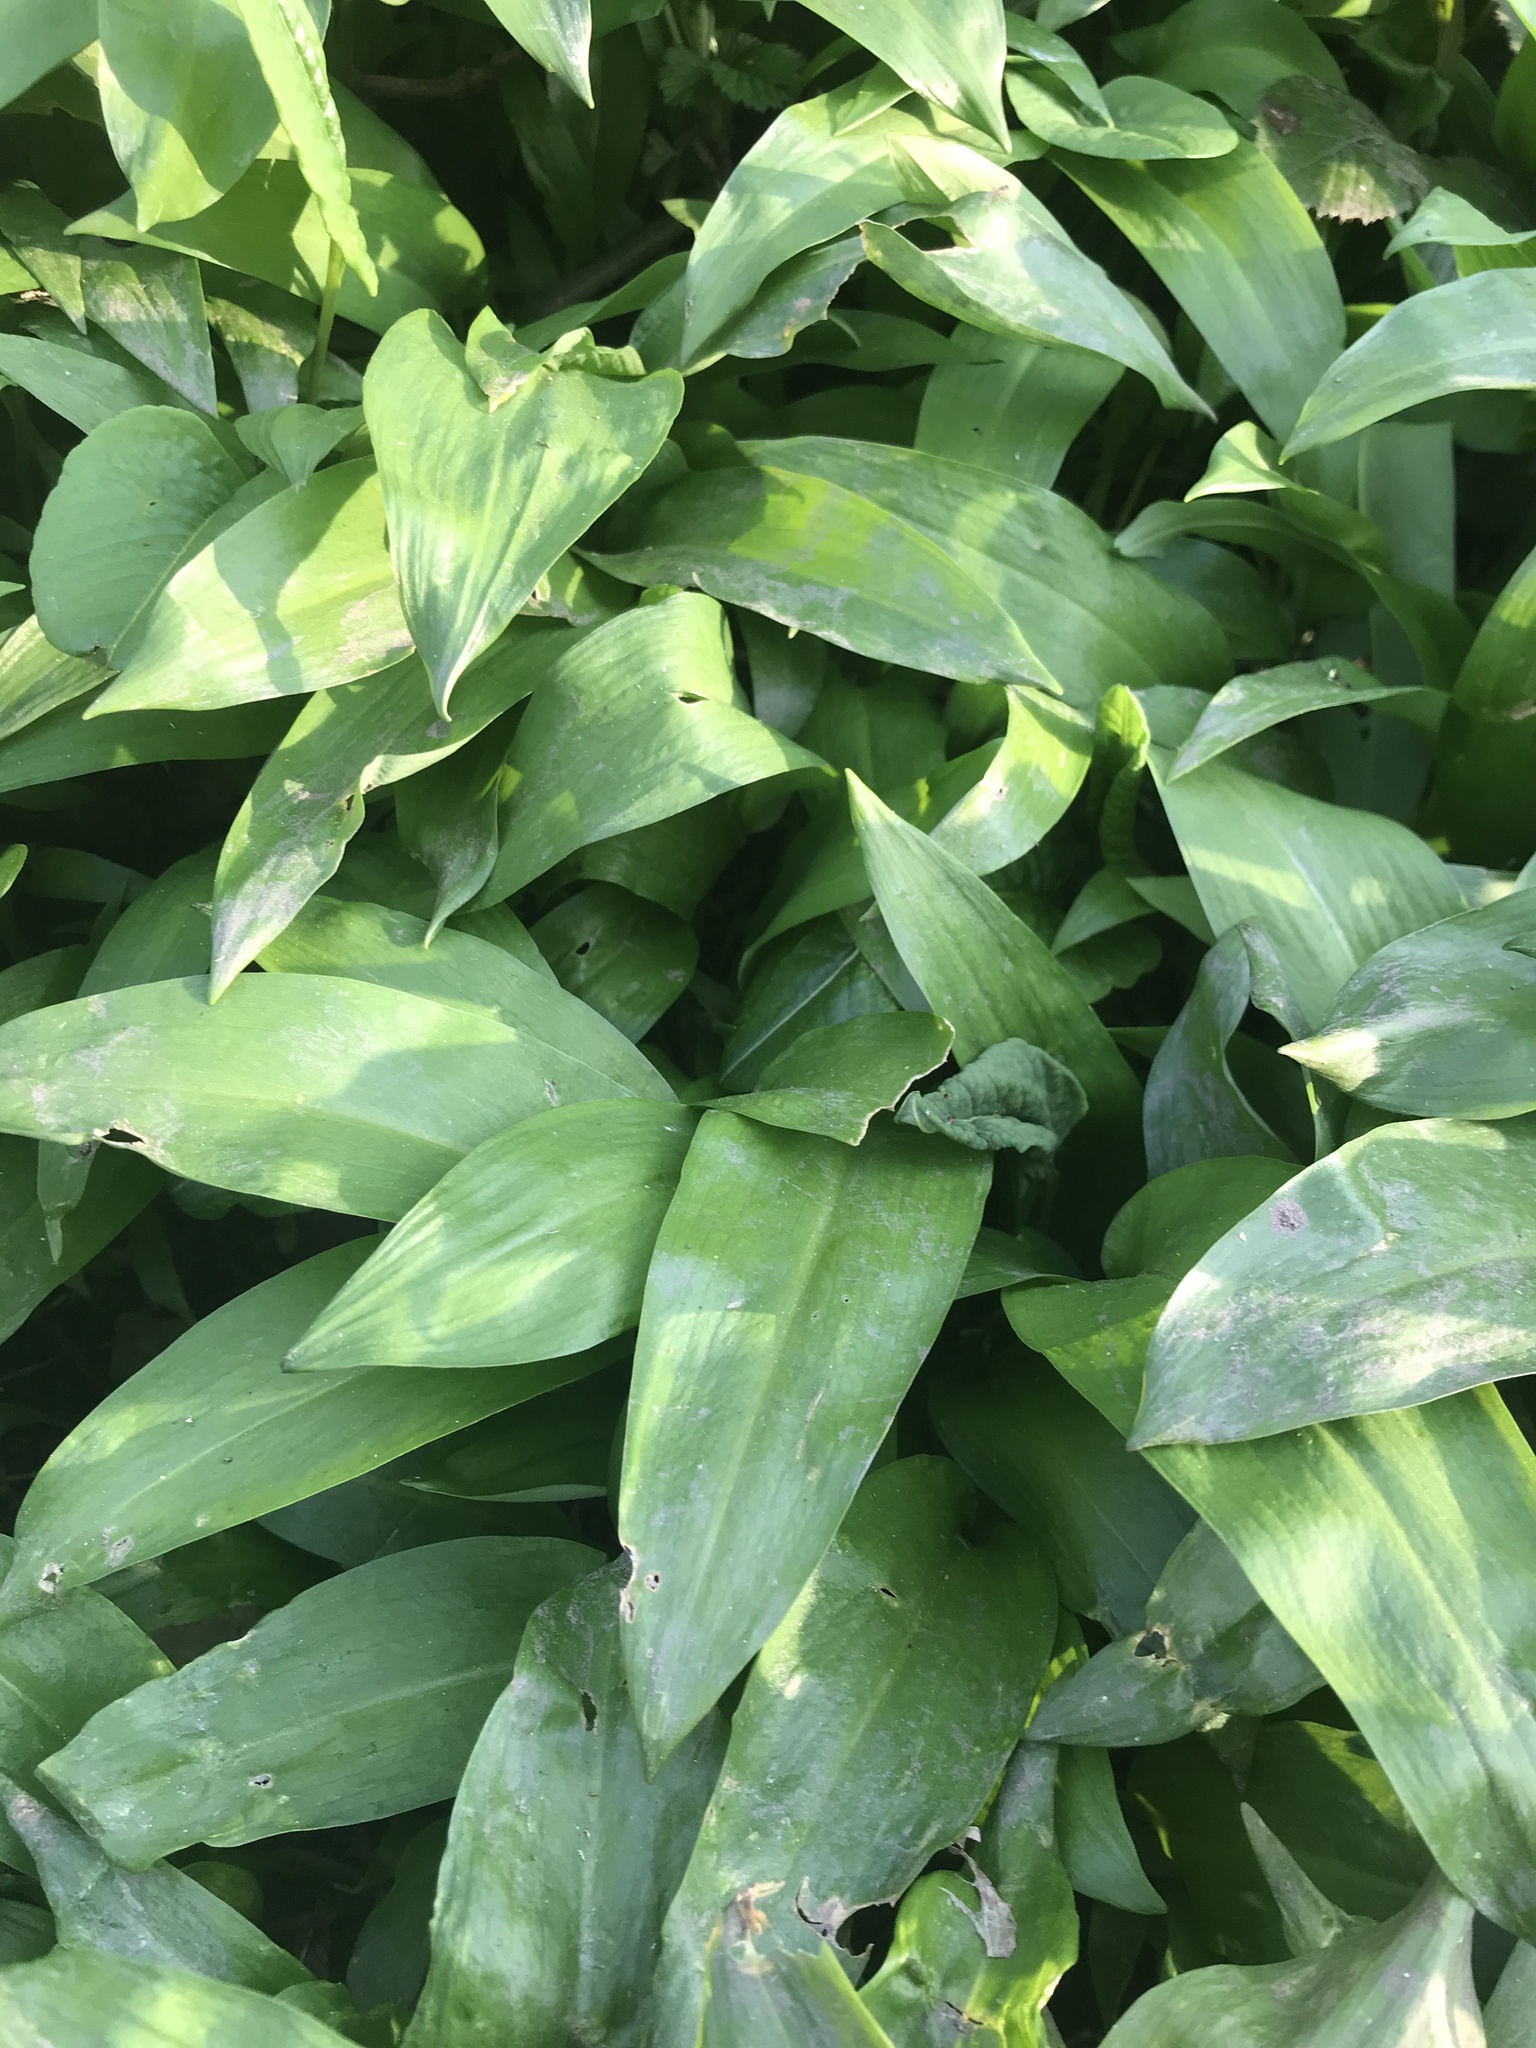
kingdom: Plantae
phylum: Tracheophyta
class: Liliopsida
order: Asparagales
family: Amaryllidaceae
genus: Allium
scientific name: Allium ursinum
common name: Ramsons
